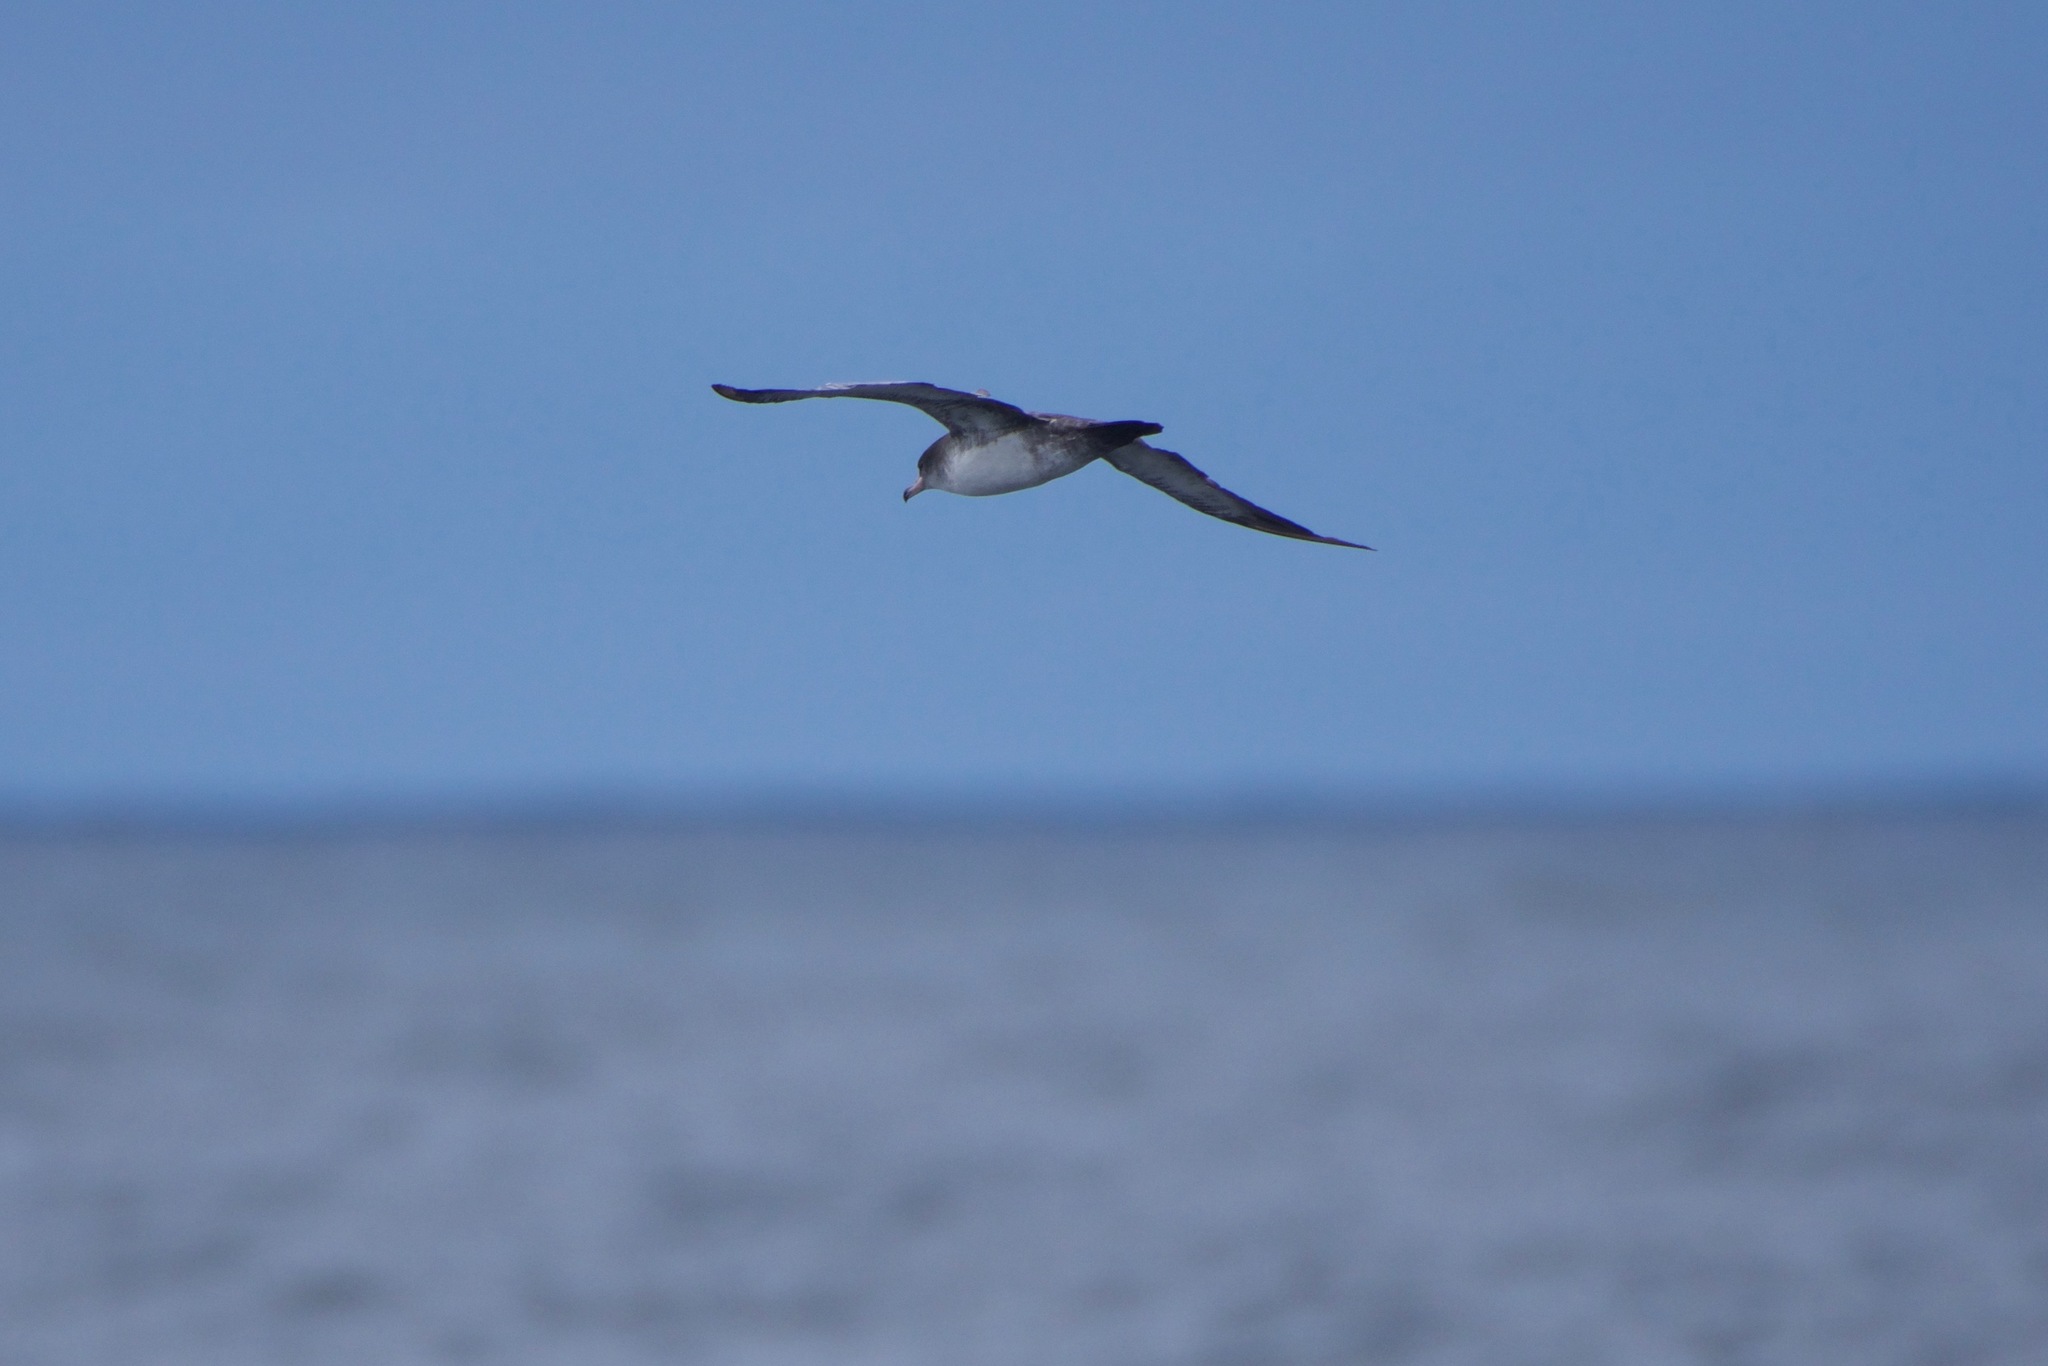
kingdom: Animalia
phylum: Chordata
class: Aves
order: Procellariiformes
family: Procellariidae
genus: Puffinus
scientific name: Puffinus creatopus
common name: Pink-footed shearwater
